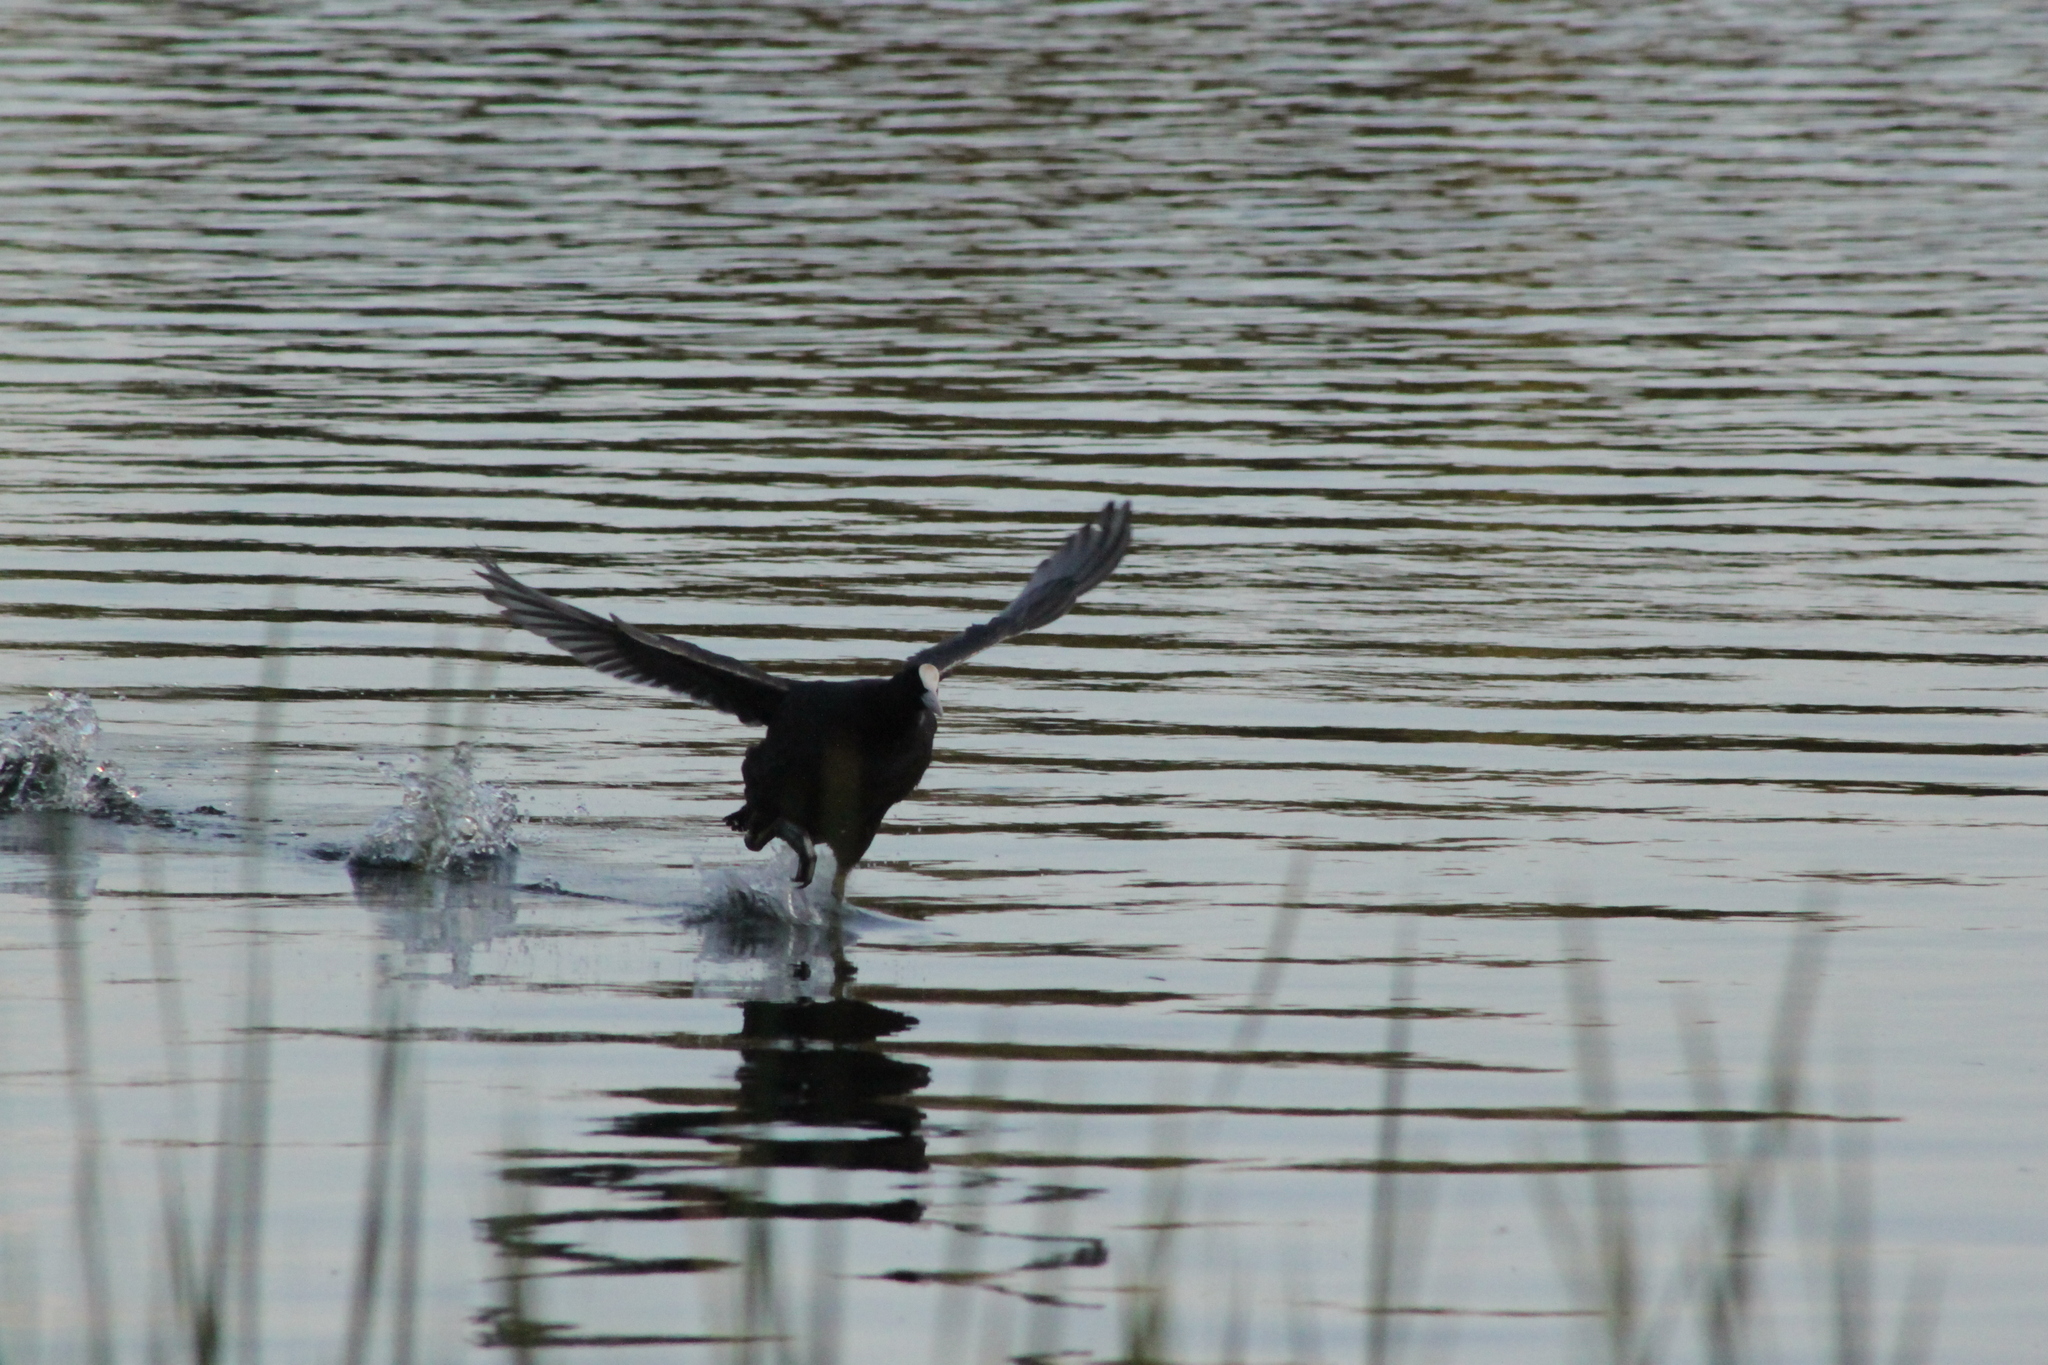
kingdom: Animalia
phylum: Chordata
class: Aves
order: Gruiformes
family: Rallidae
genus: Fulica
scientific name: Fulica atra
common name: Eurasian coot
